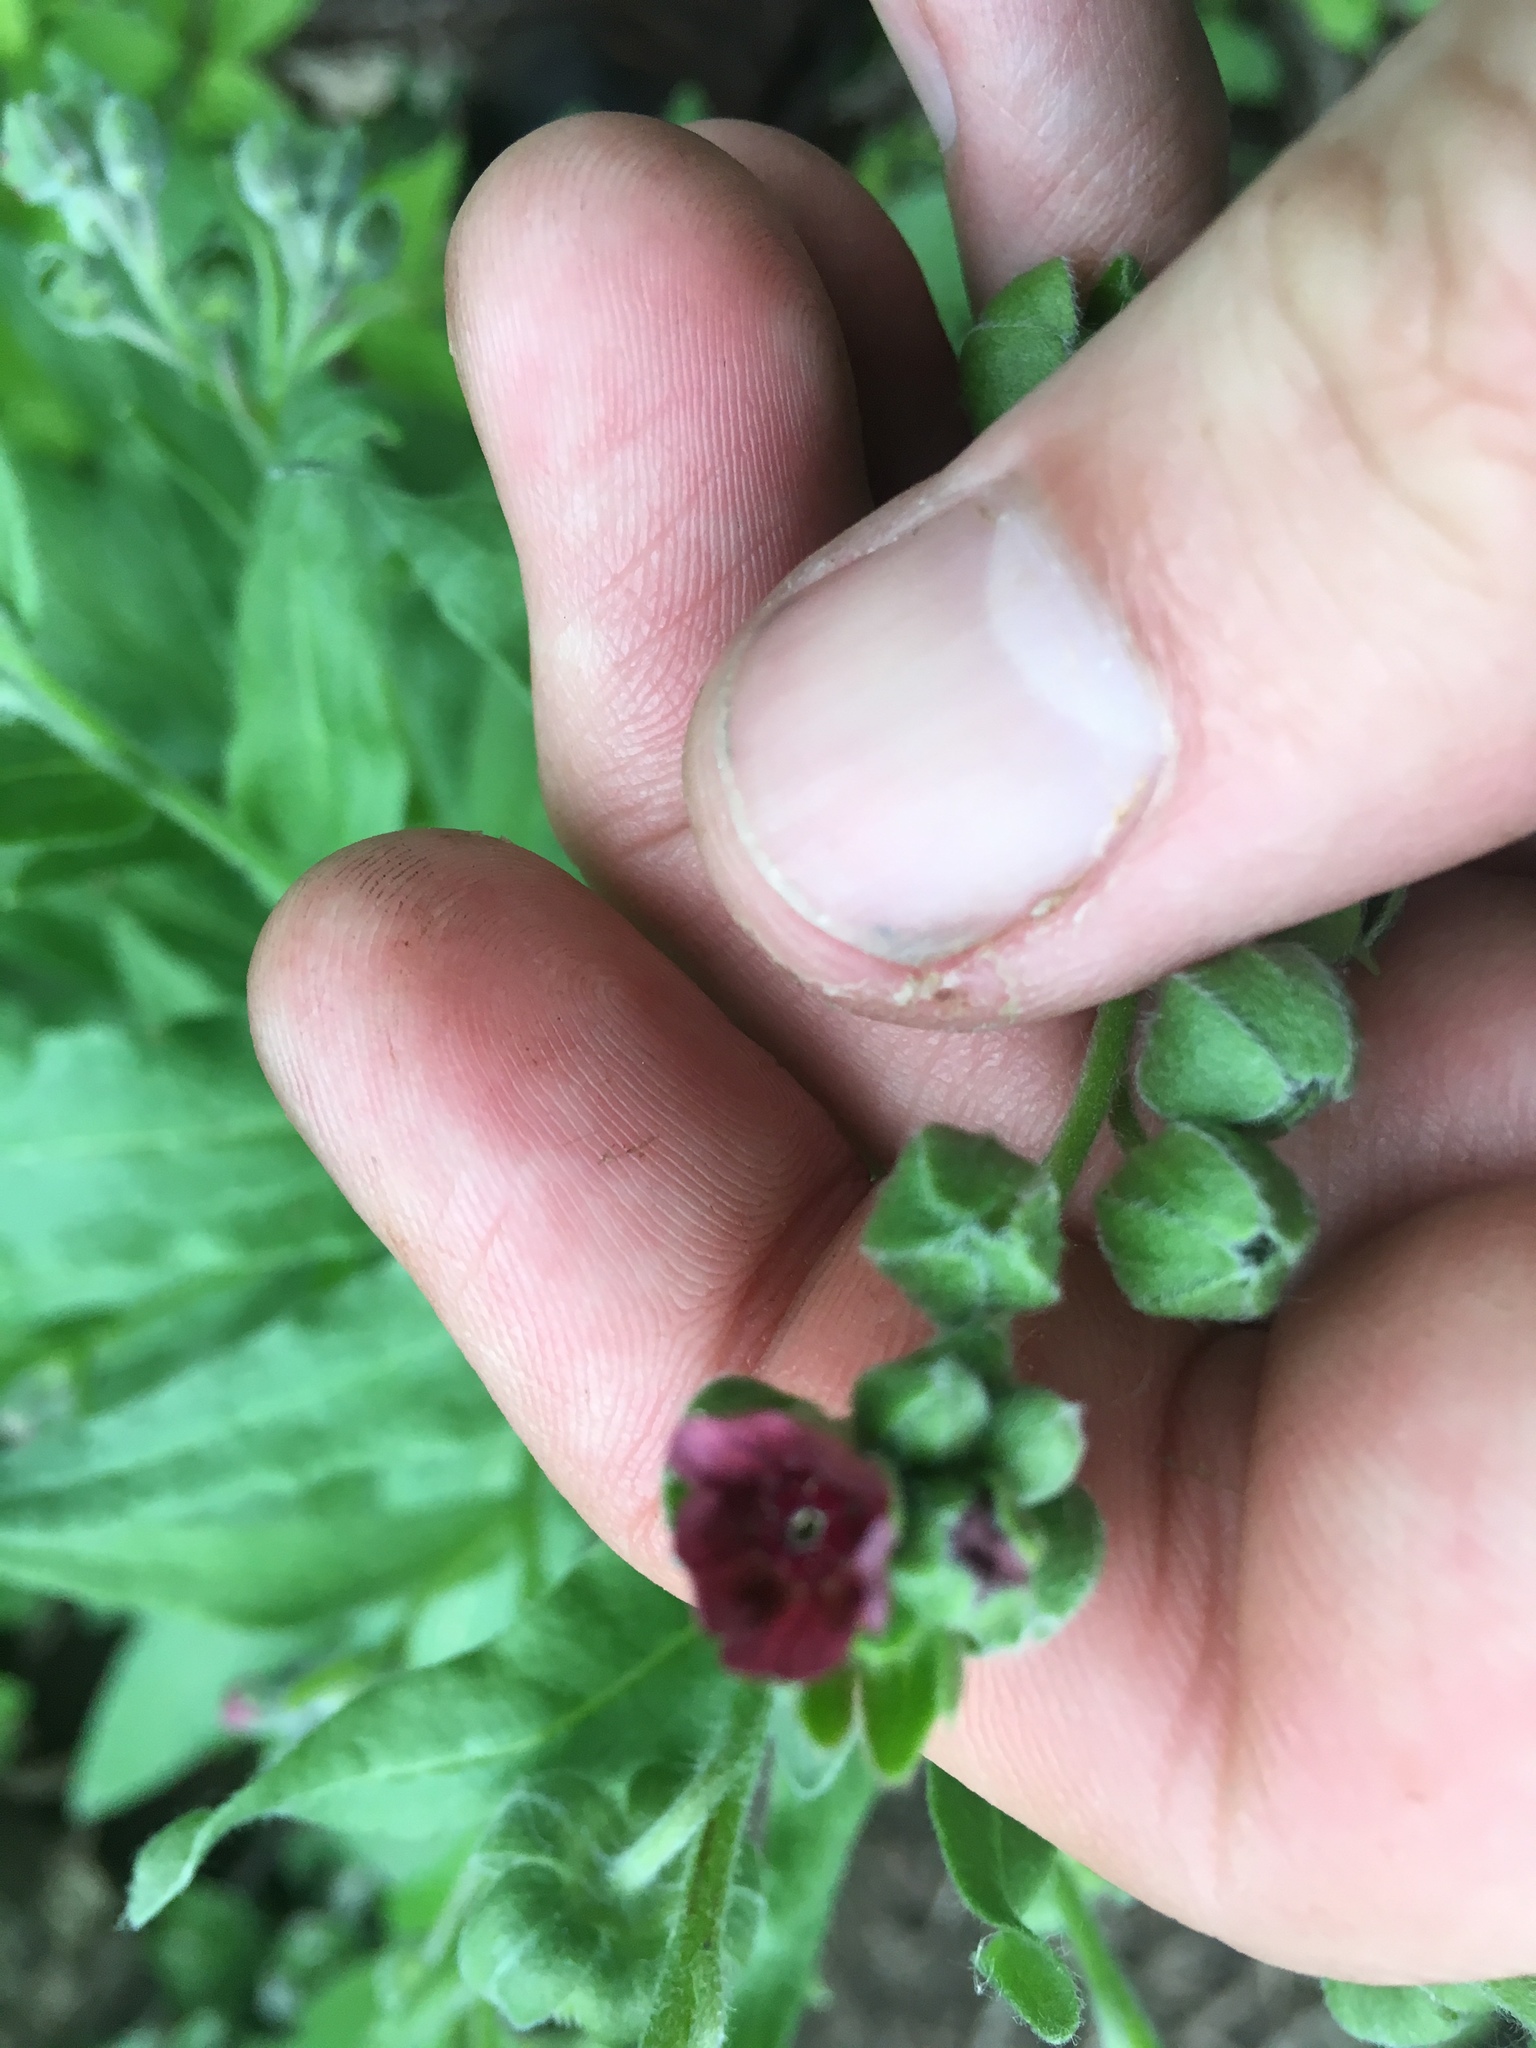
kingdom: Plantae
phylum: Tracheophyta
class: Magnoliopsida
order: Boraginales
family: Boraginaceae
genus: Cynoglossum
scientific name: Cynoglossum officinale
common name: Hound's-tongue
